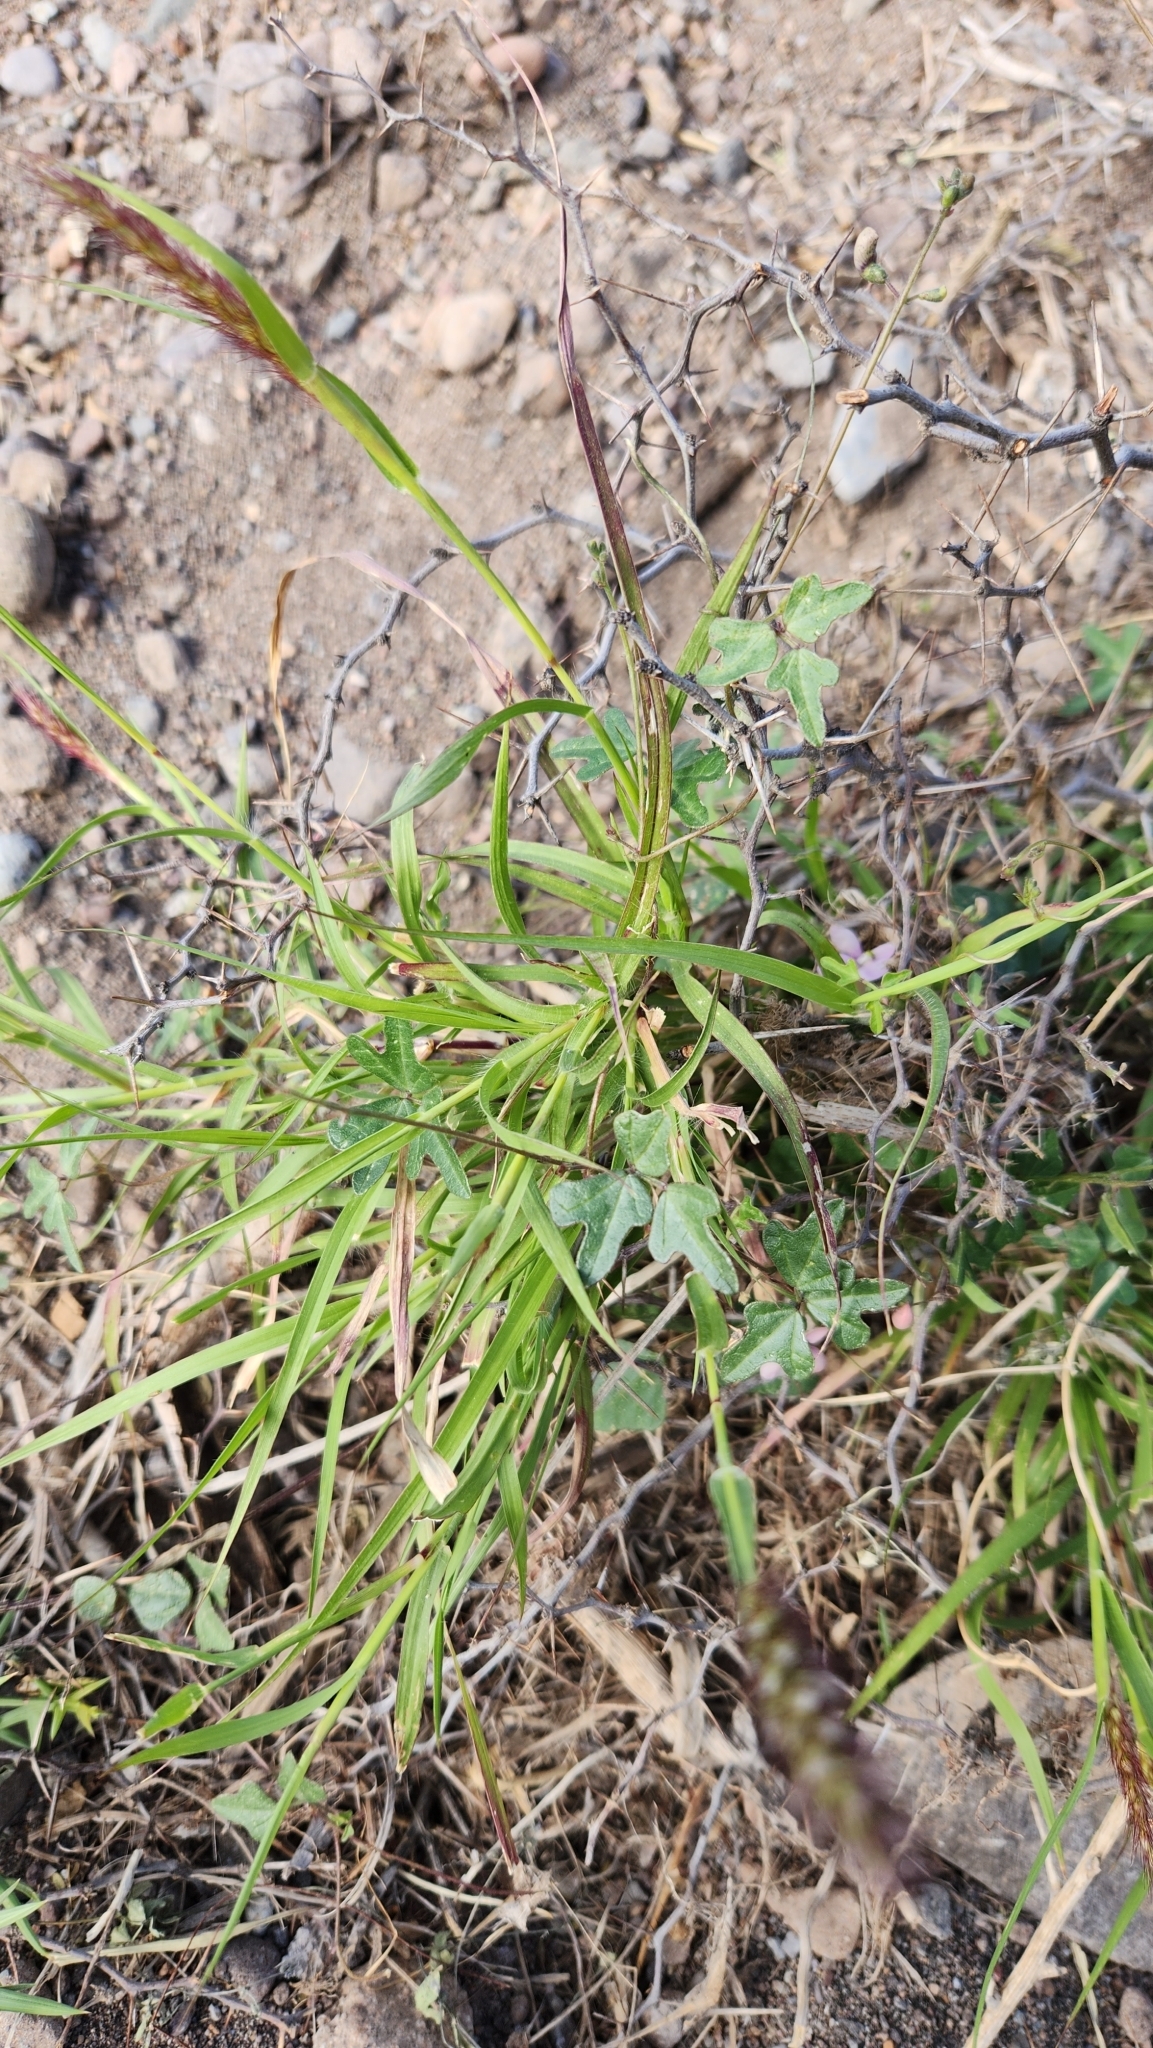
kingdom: Plantae
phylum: Tracheophyta
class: Liliopsida
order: Poales
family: Poaceae
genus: Cenchrus
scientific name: Cenchrus ciliaris
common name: Buffelgrass
